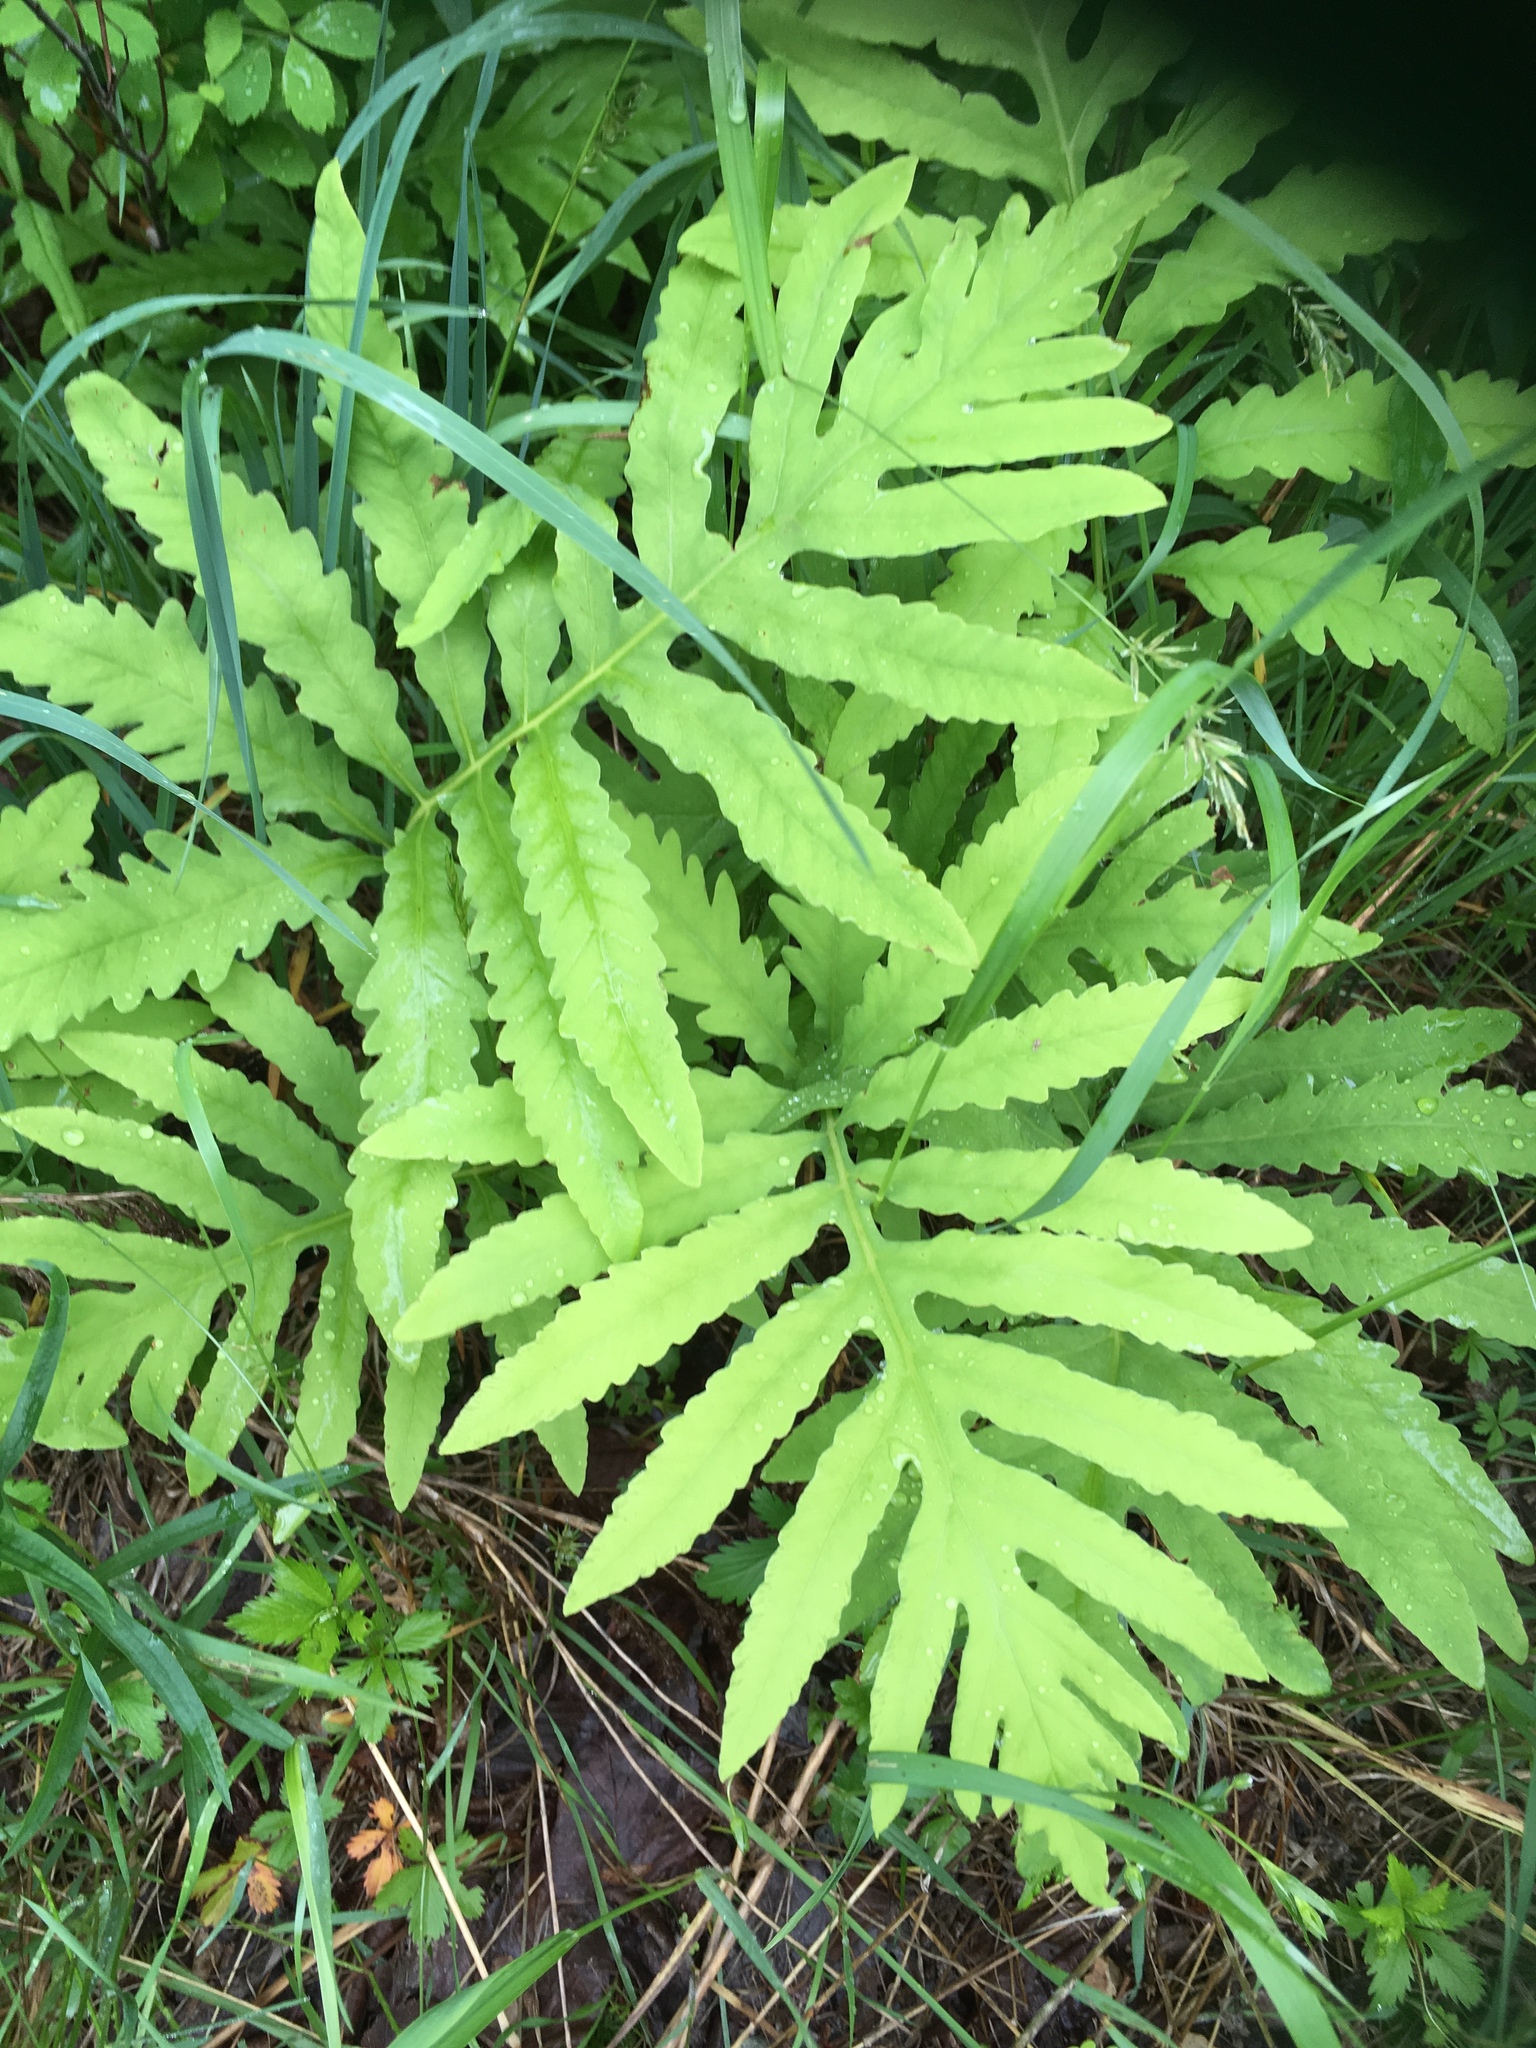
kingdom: Plantae
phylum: Tracheophyta
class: Polypodiopsida
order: Polypodiales
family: Onocleaceae
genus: Onoclea
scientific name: Onoclea sensibilis
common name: Sensitive fern
